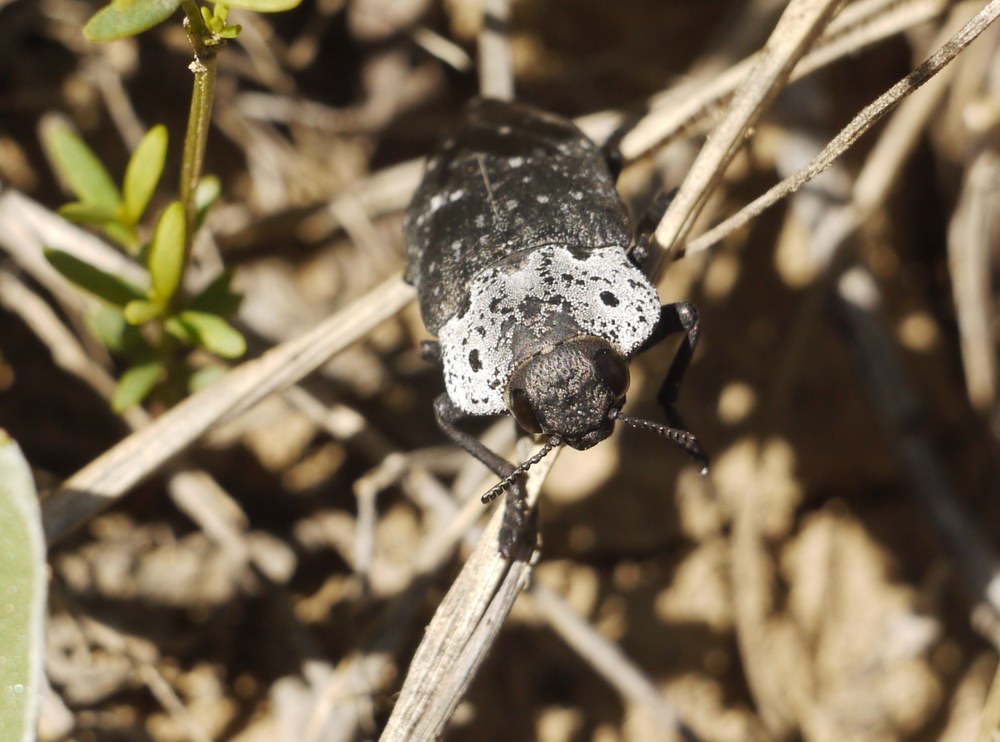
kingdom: Animalia
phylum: Arthropoda
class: Insecta
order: Coleoptera
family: Buprestidae
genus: Capnodis
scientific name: Capnodis tenebrionis
